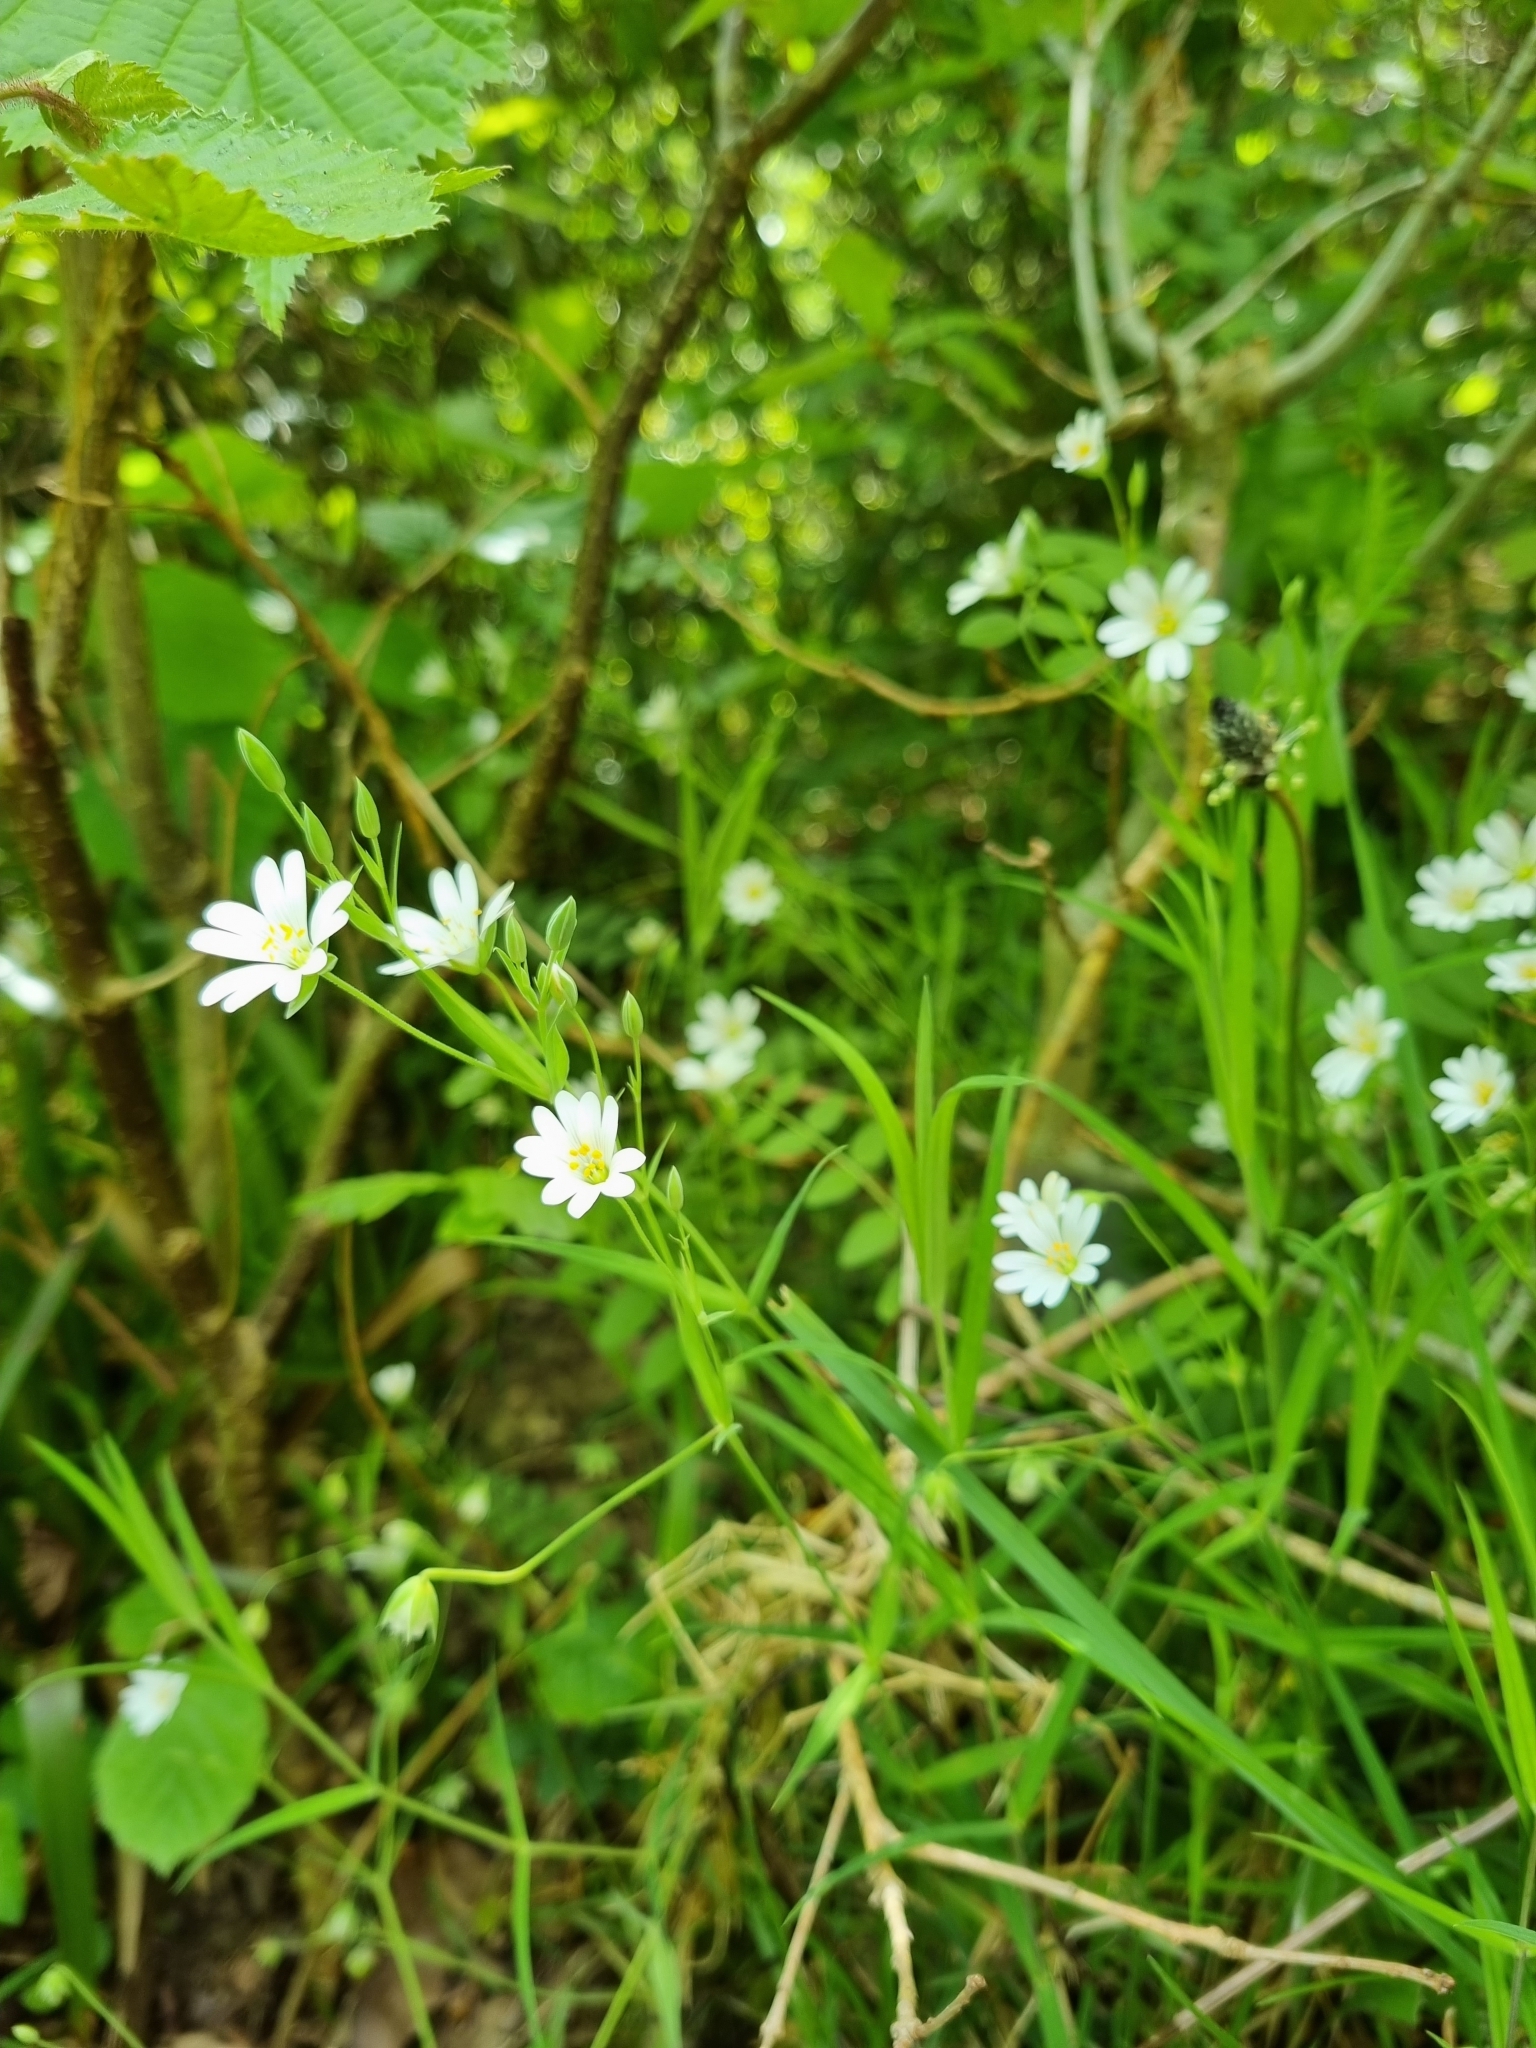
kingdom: Plantae
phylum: Tracheophyta
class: Magnoliopsida
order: Caryophyllales
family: Caryophyllaceae
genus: Rabelera
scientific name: Rabelera holostea
